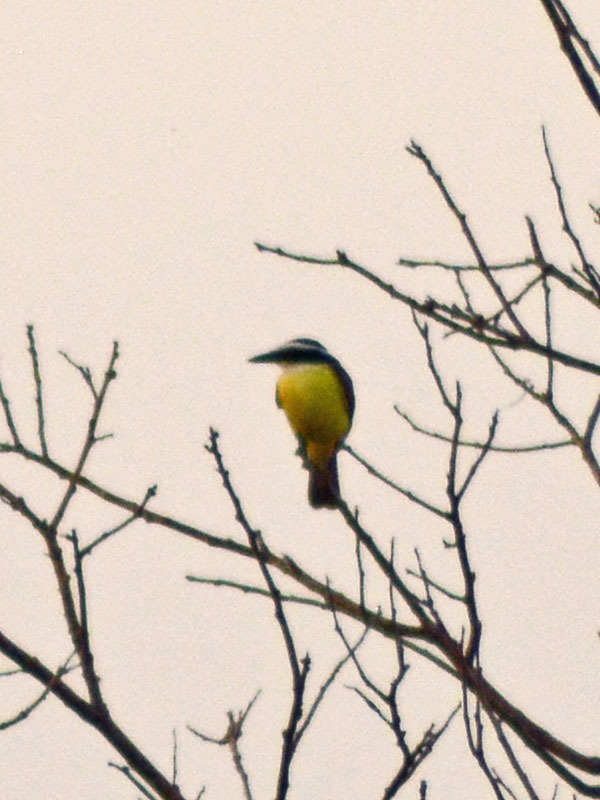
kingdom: Animalia
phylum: Chordata
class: Aves
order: Passeriformes
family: Tyrannidae
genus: Pitangus
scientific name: Pitangus sulphuratus
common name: Great kiskadee
